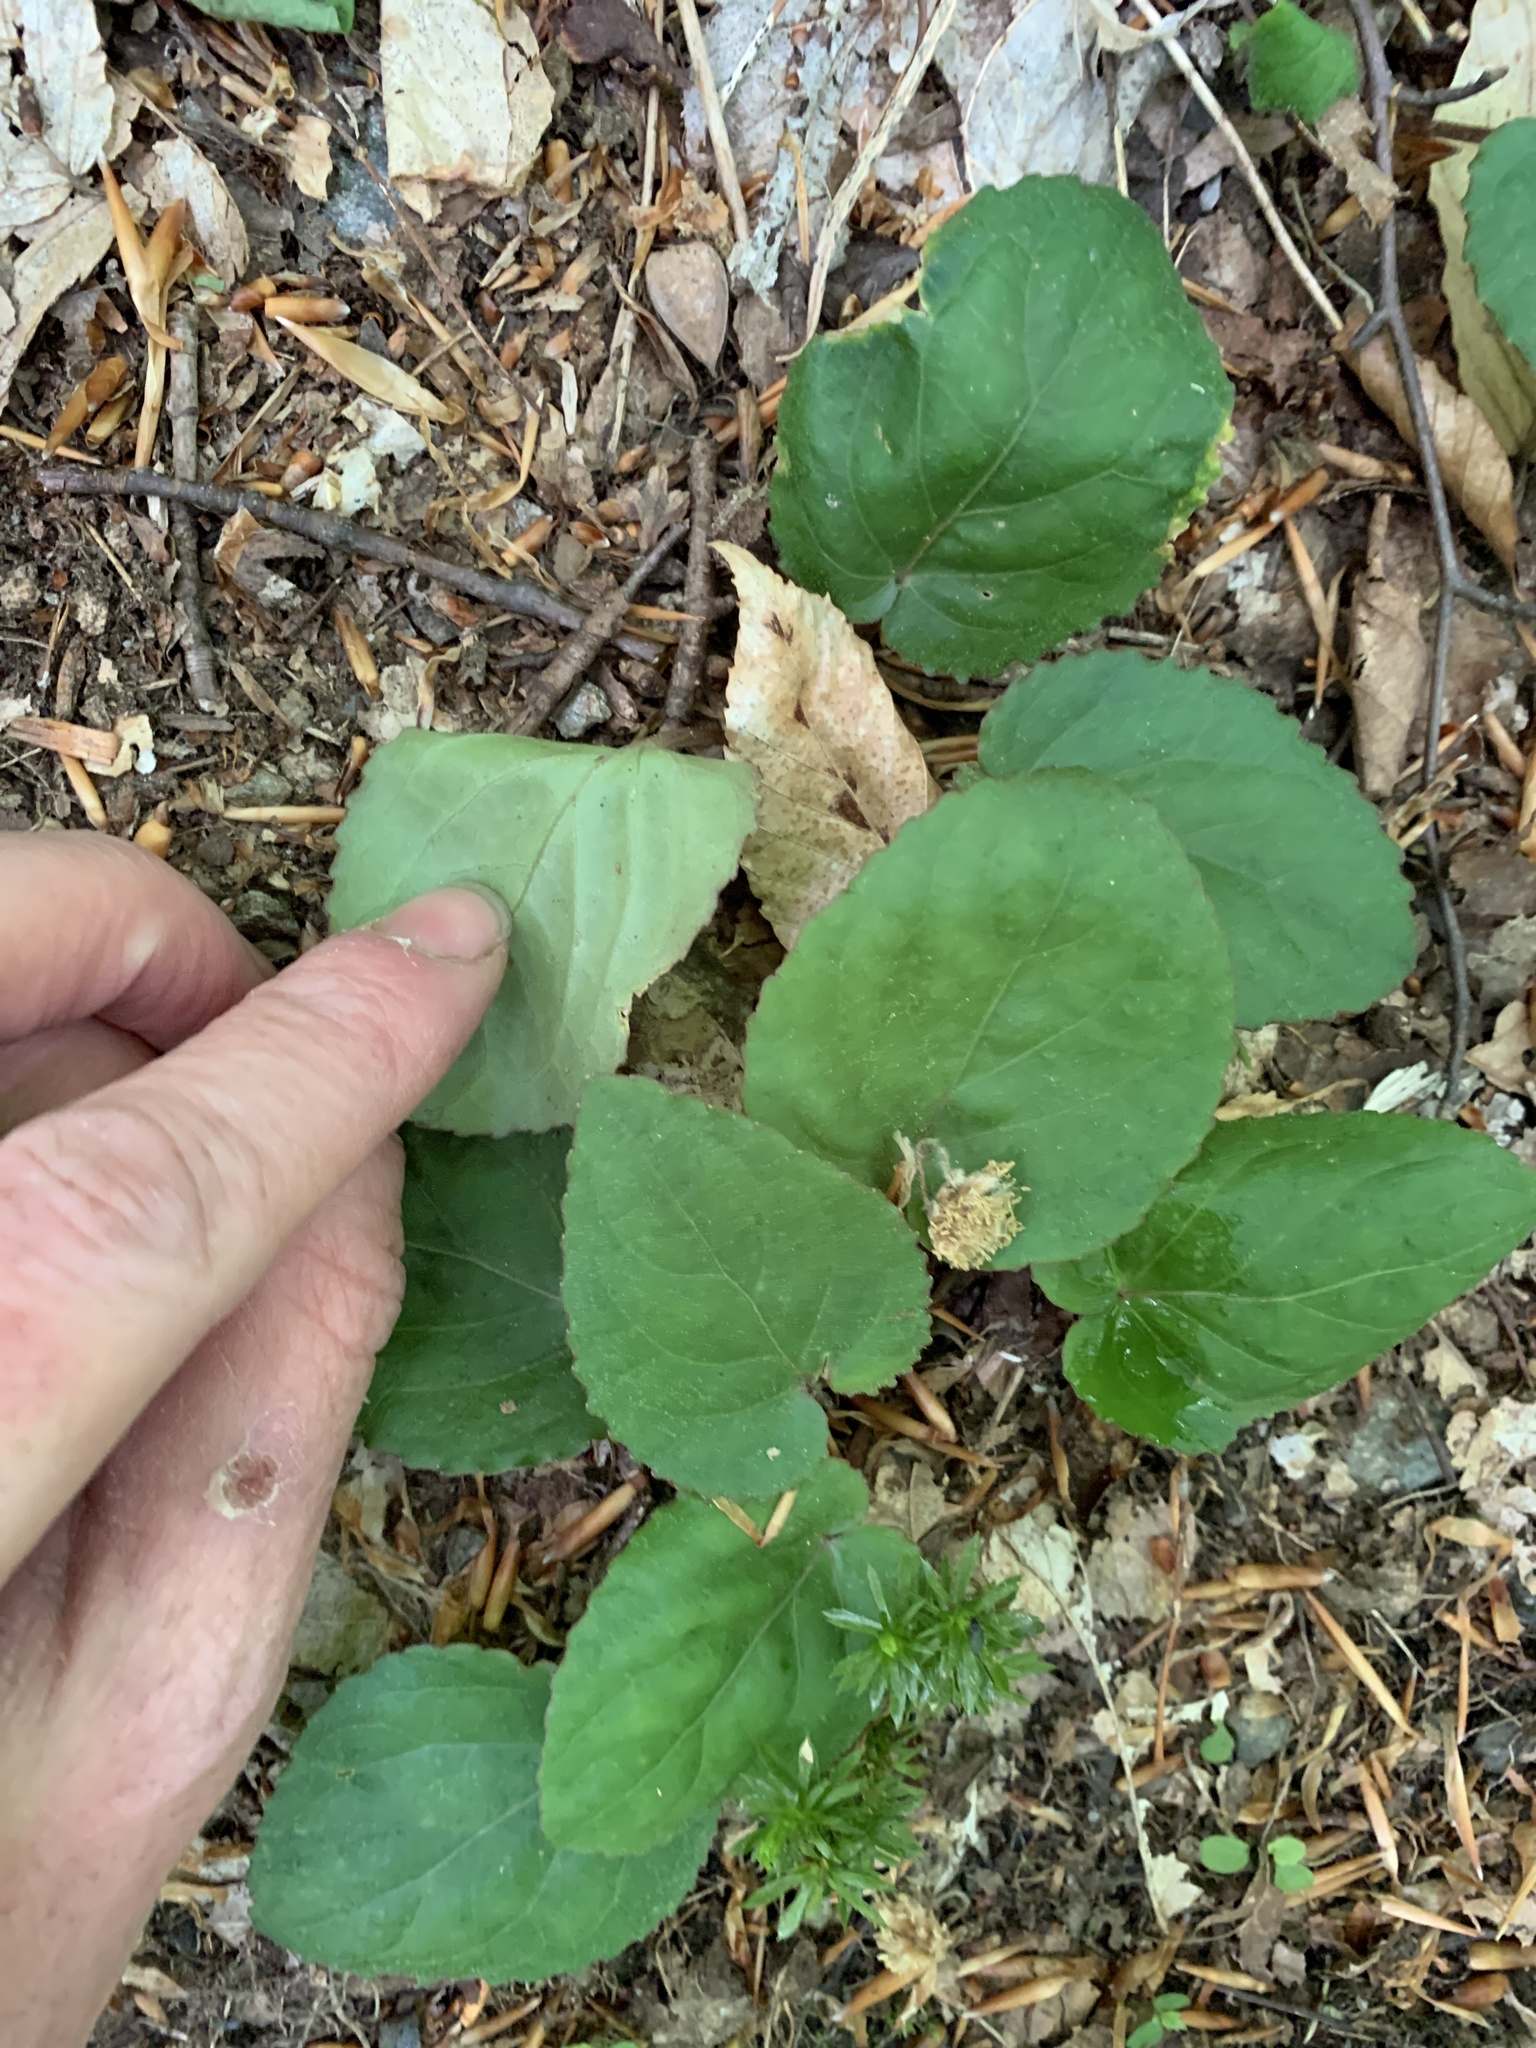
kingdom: Plantae
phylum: Tracheophyta
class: Magnoliopsida
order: Malpighiales
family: Violaceae
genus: Viola
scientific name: Viola rotundifolia
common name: Early yellow violet
